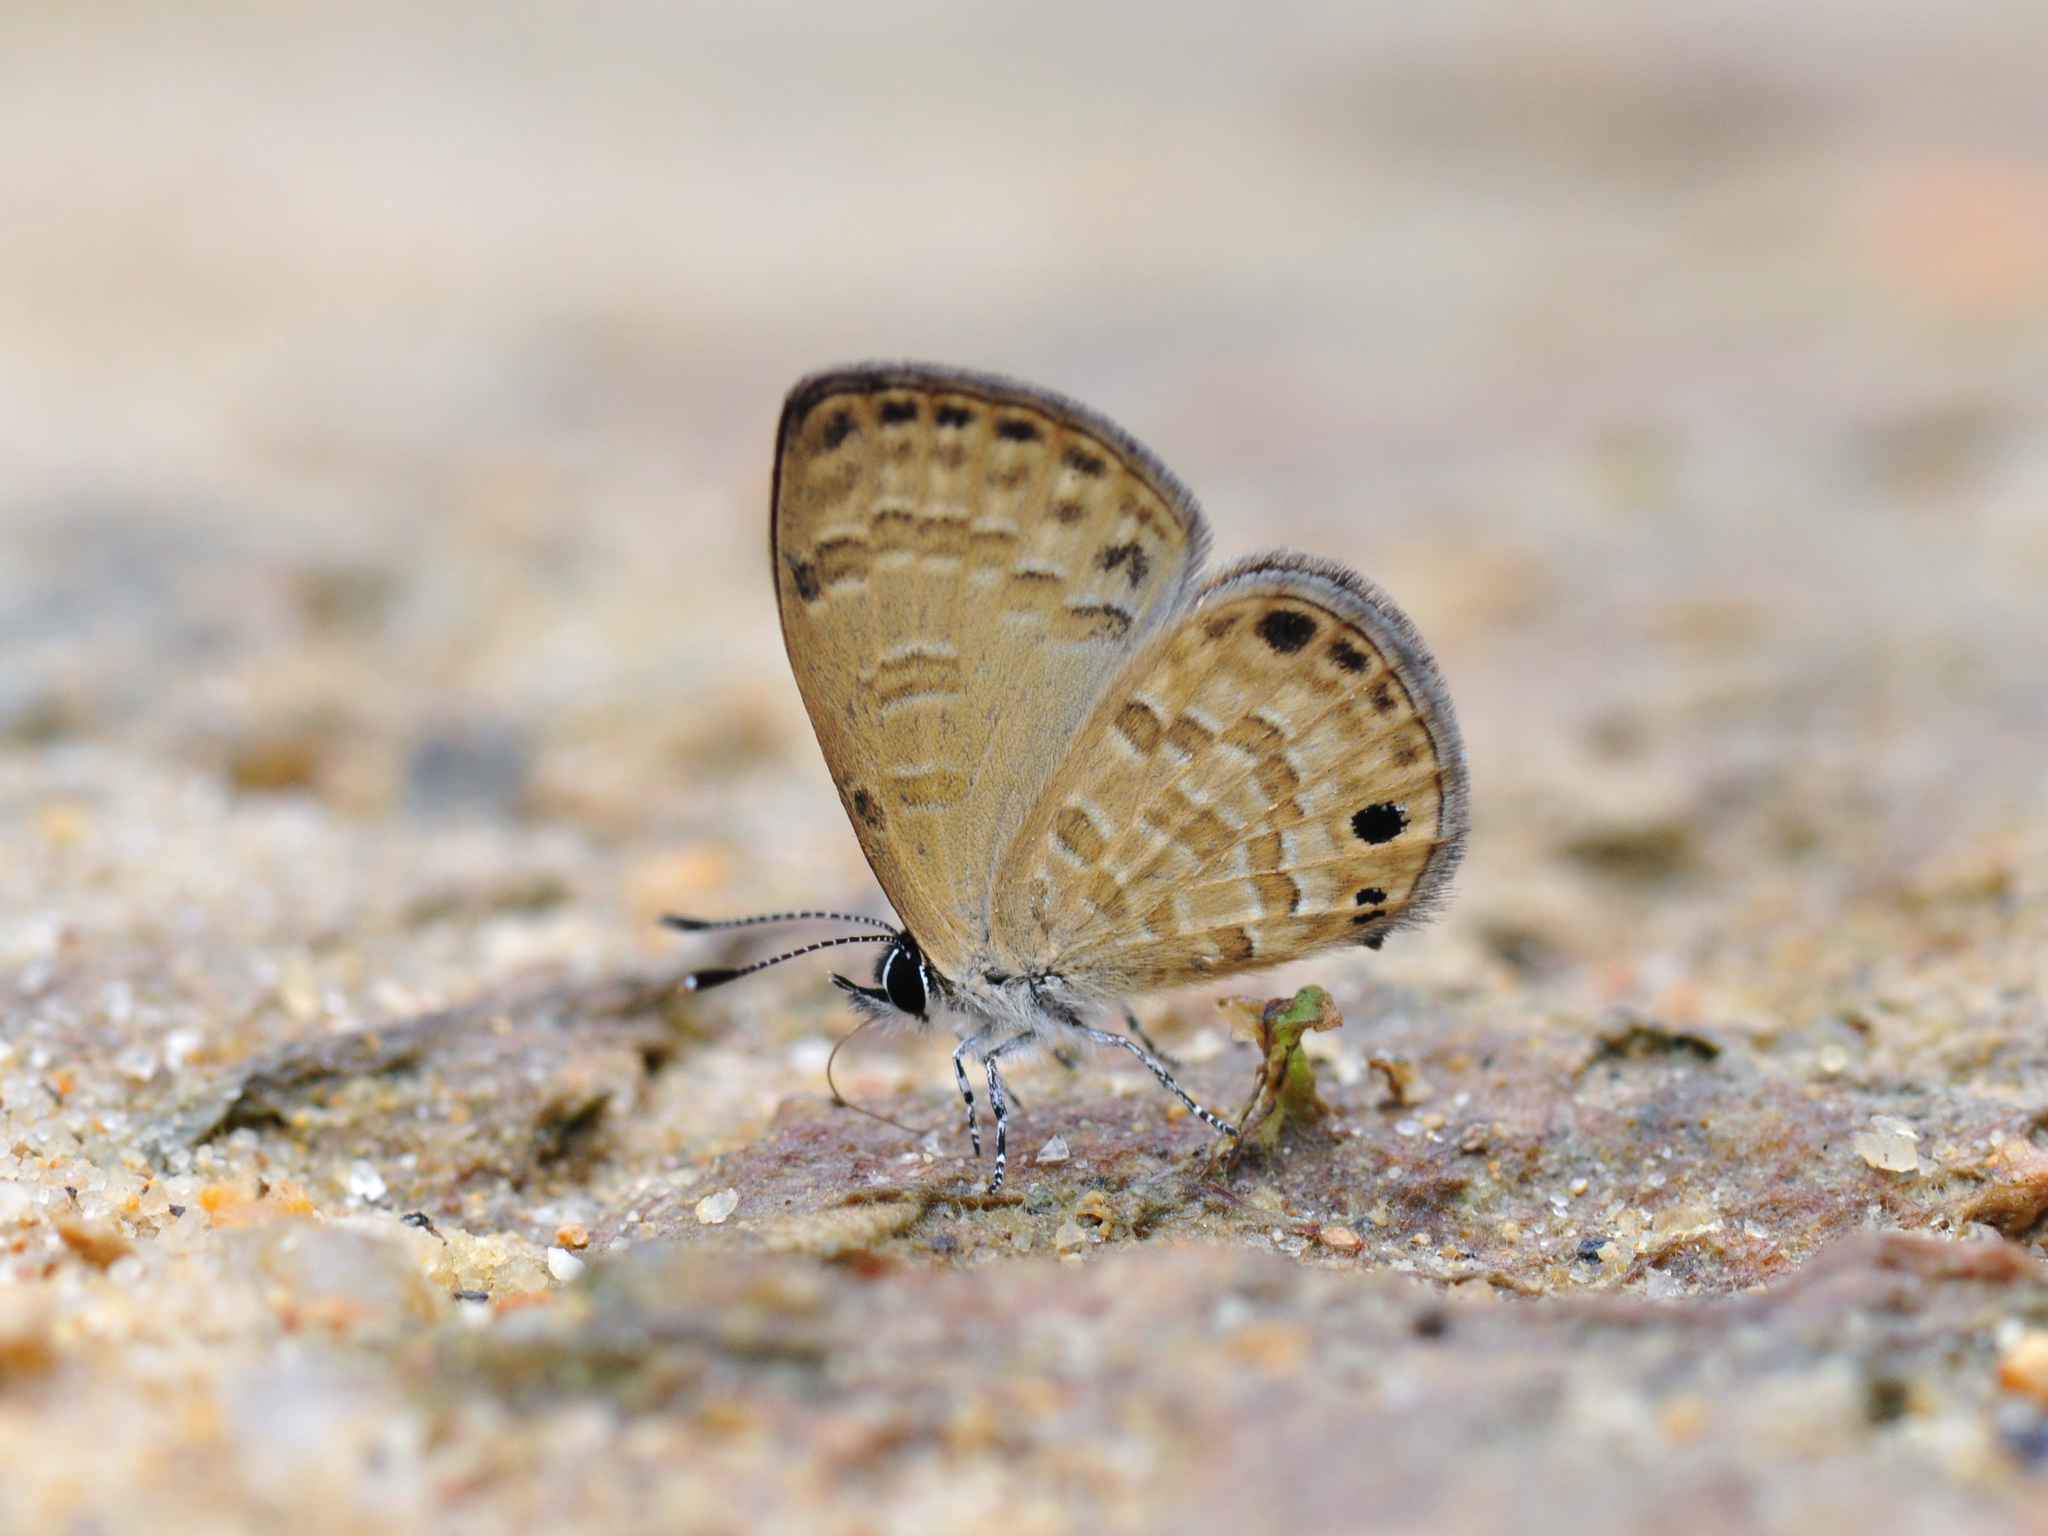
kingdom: Animalia
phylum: Arthropoda
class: Insecta
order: Lepidoptera
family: Lycaenidae
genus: Prosotas
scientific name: Prosotas lutea
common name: Brown lineblue
